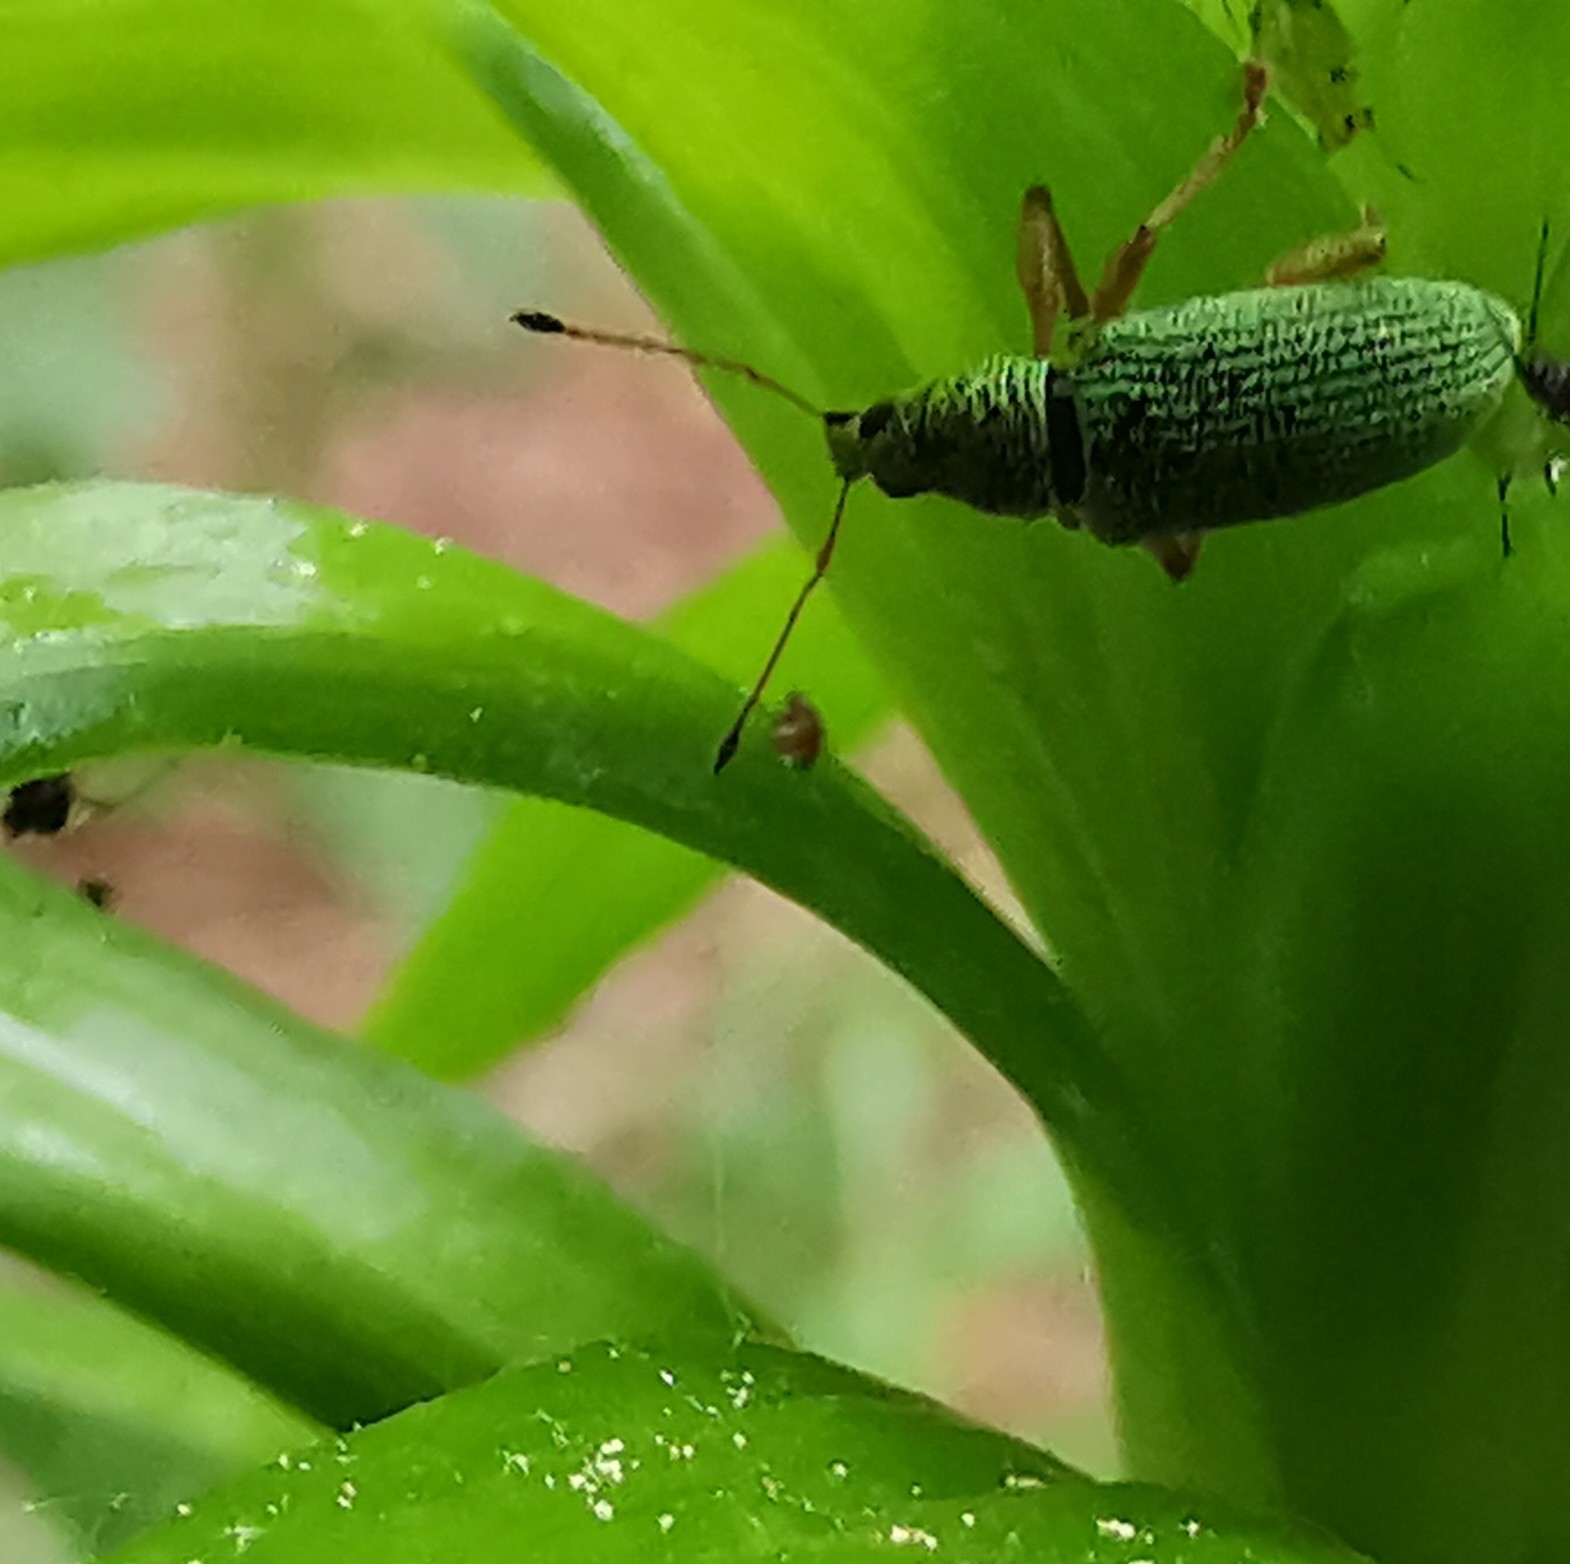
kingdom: Animalia
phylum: Arthropoda
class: Insecta
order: Coleoptera
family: Curculionidae
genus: Polydrusus
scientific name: Polydrusus formosus
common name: Weevil
